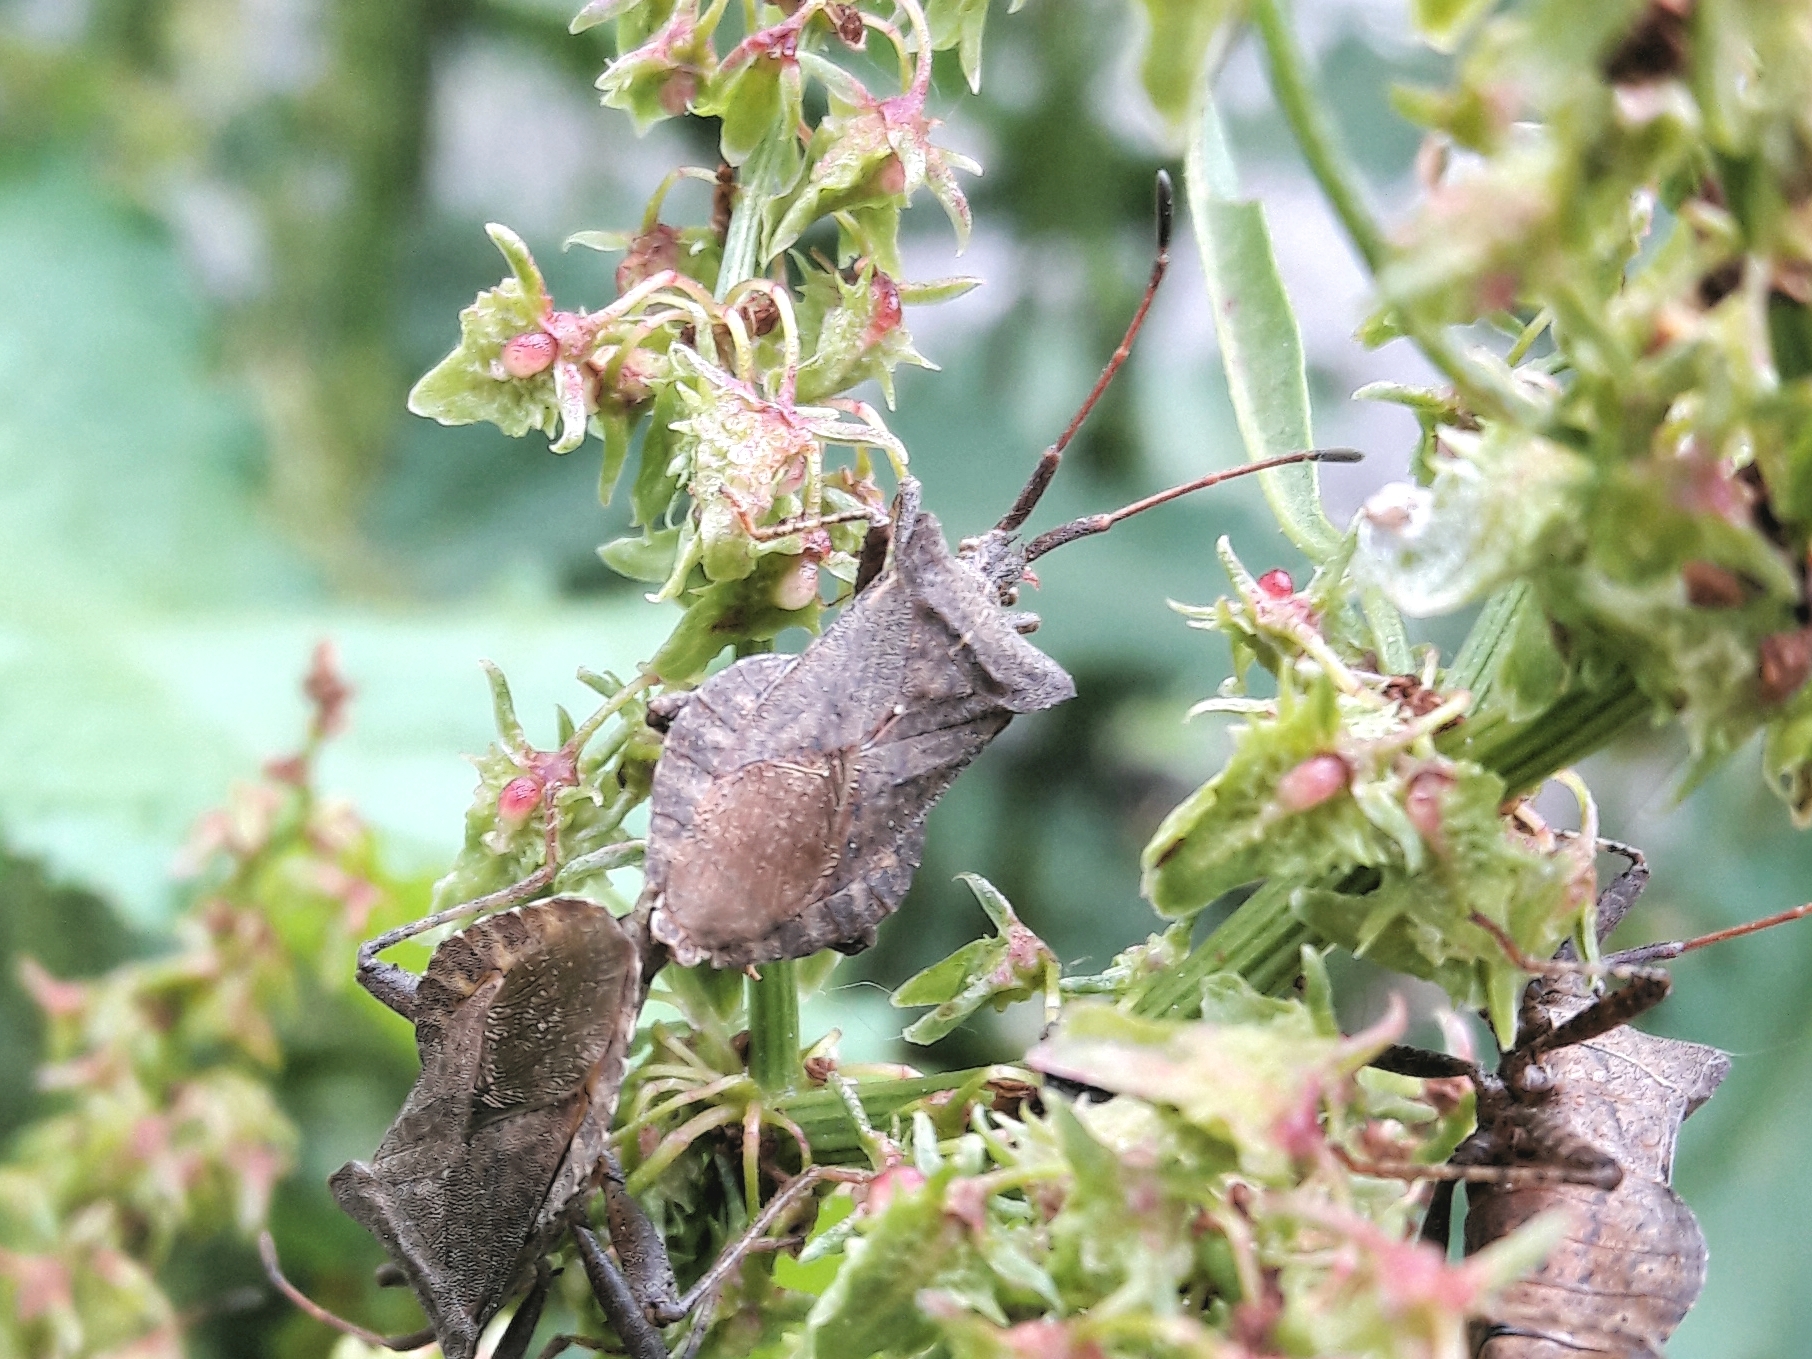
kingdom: Animalia
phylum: Arthropoda
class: Insecta
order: Hemiptera
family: Coreidae
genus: Coreus
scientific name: Coreus marginatus
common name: Dock bug
